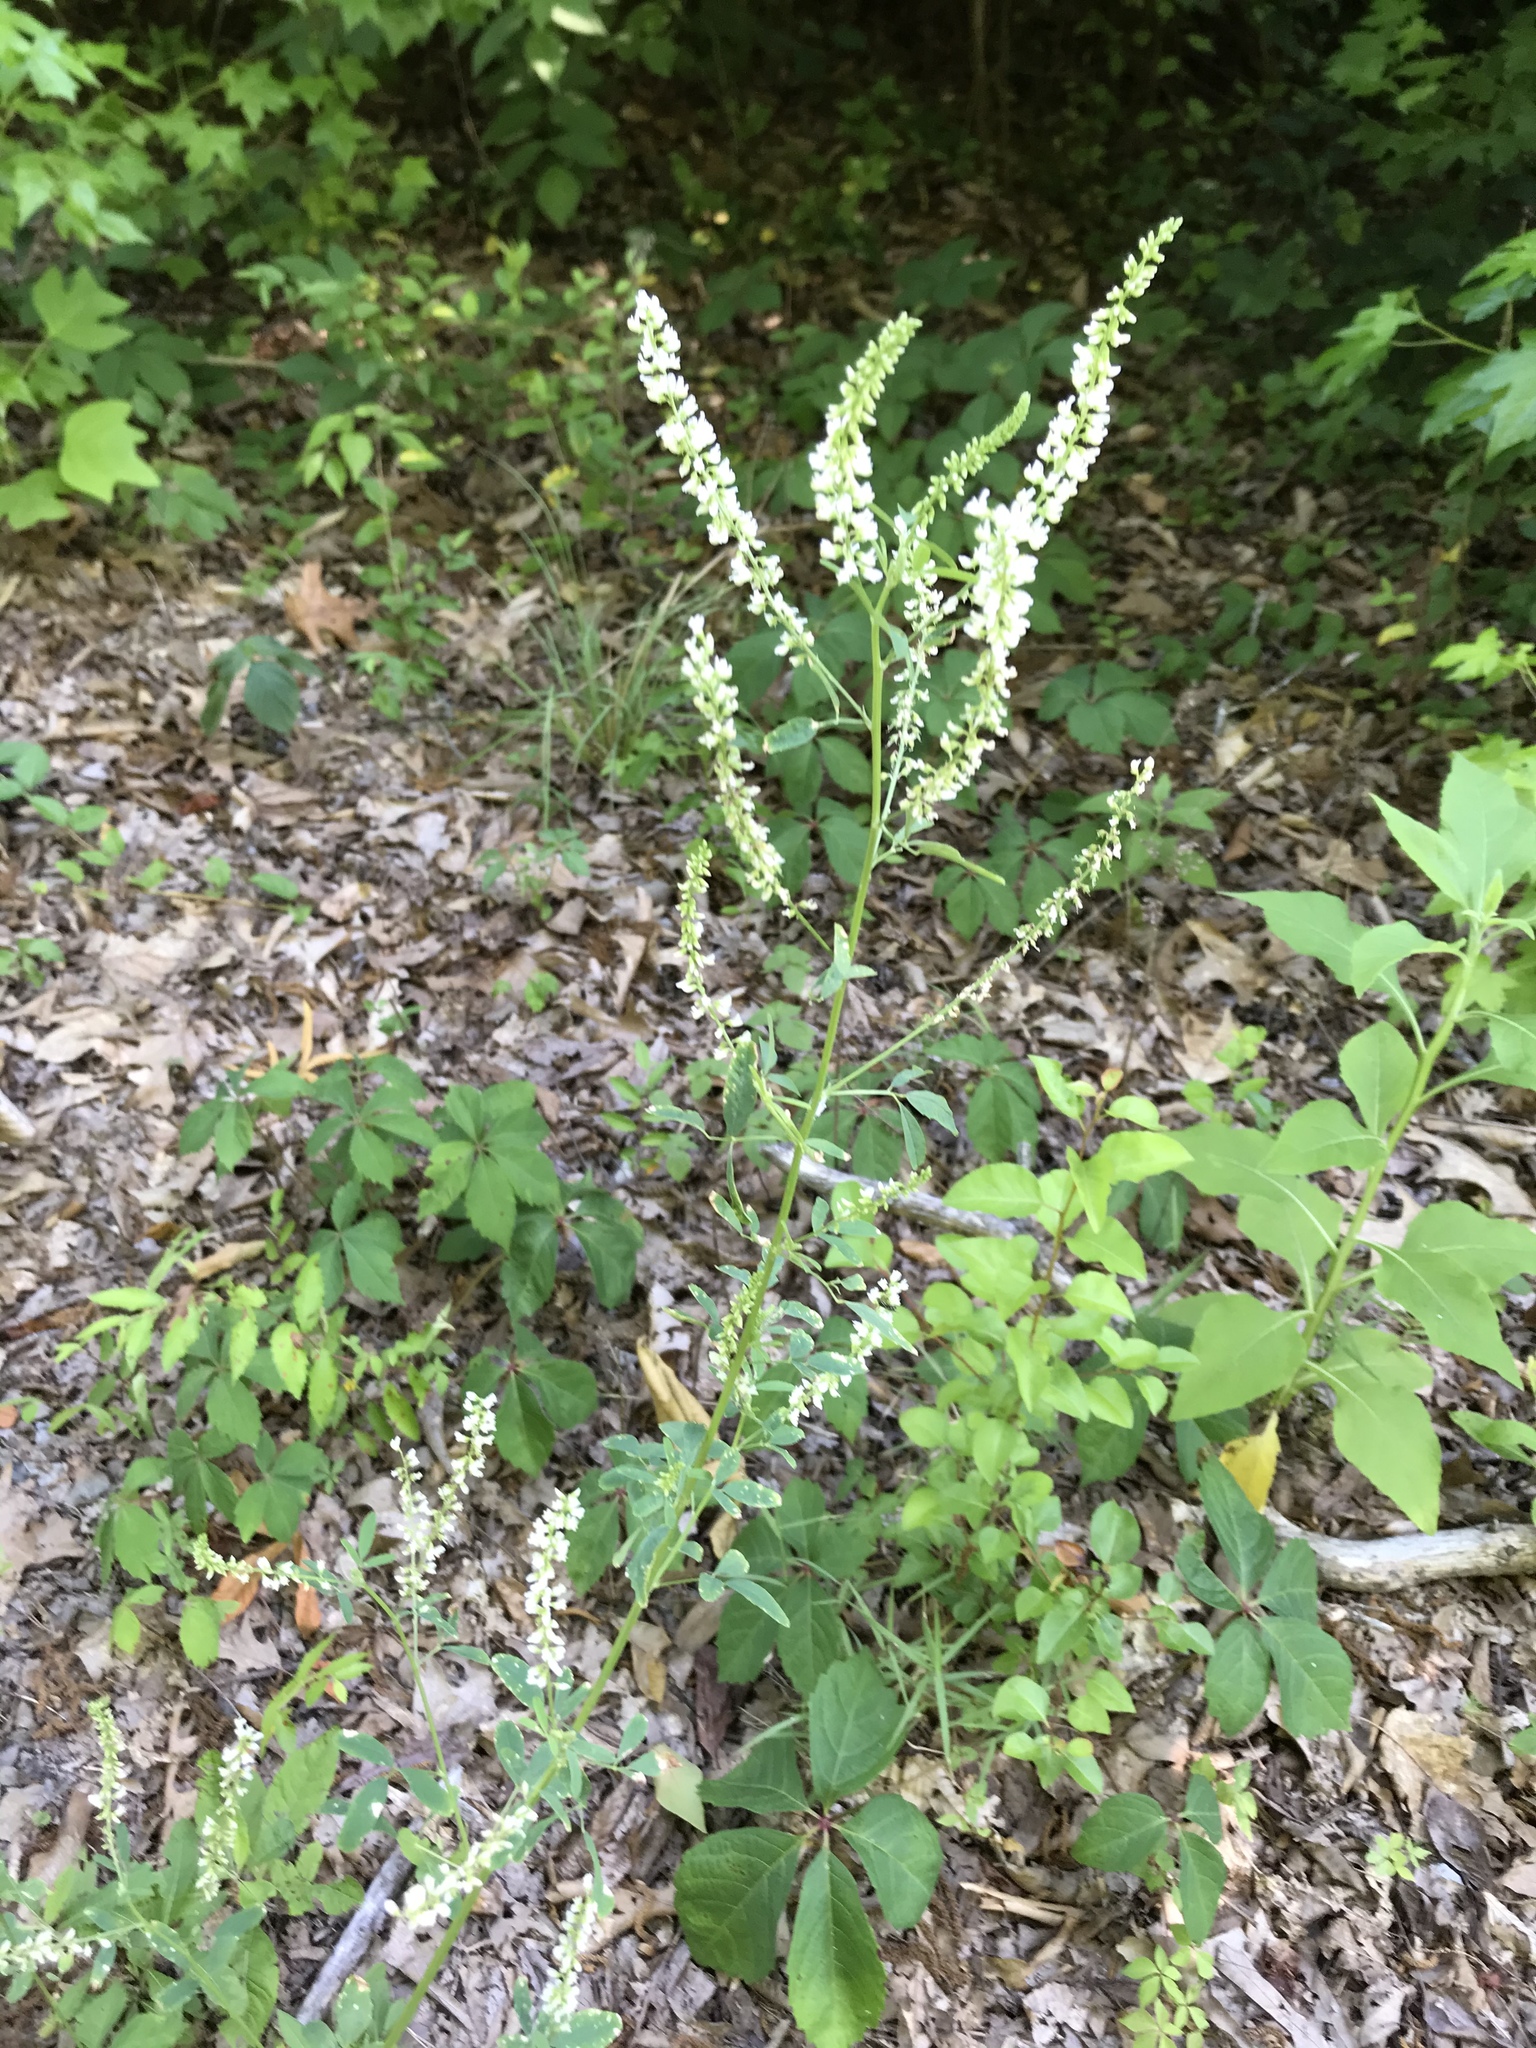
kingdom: Plantae
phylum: Tracheophyta
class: Magnoliopsida
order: Fabales
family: Fabaceae
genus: Melilotus
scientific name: Melilotus albus
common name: White melilot
